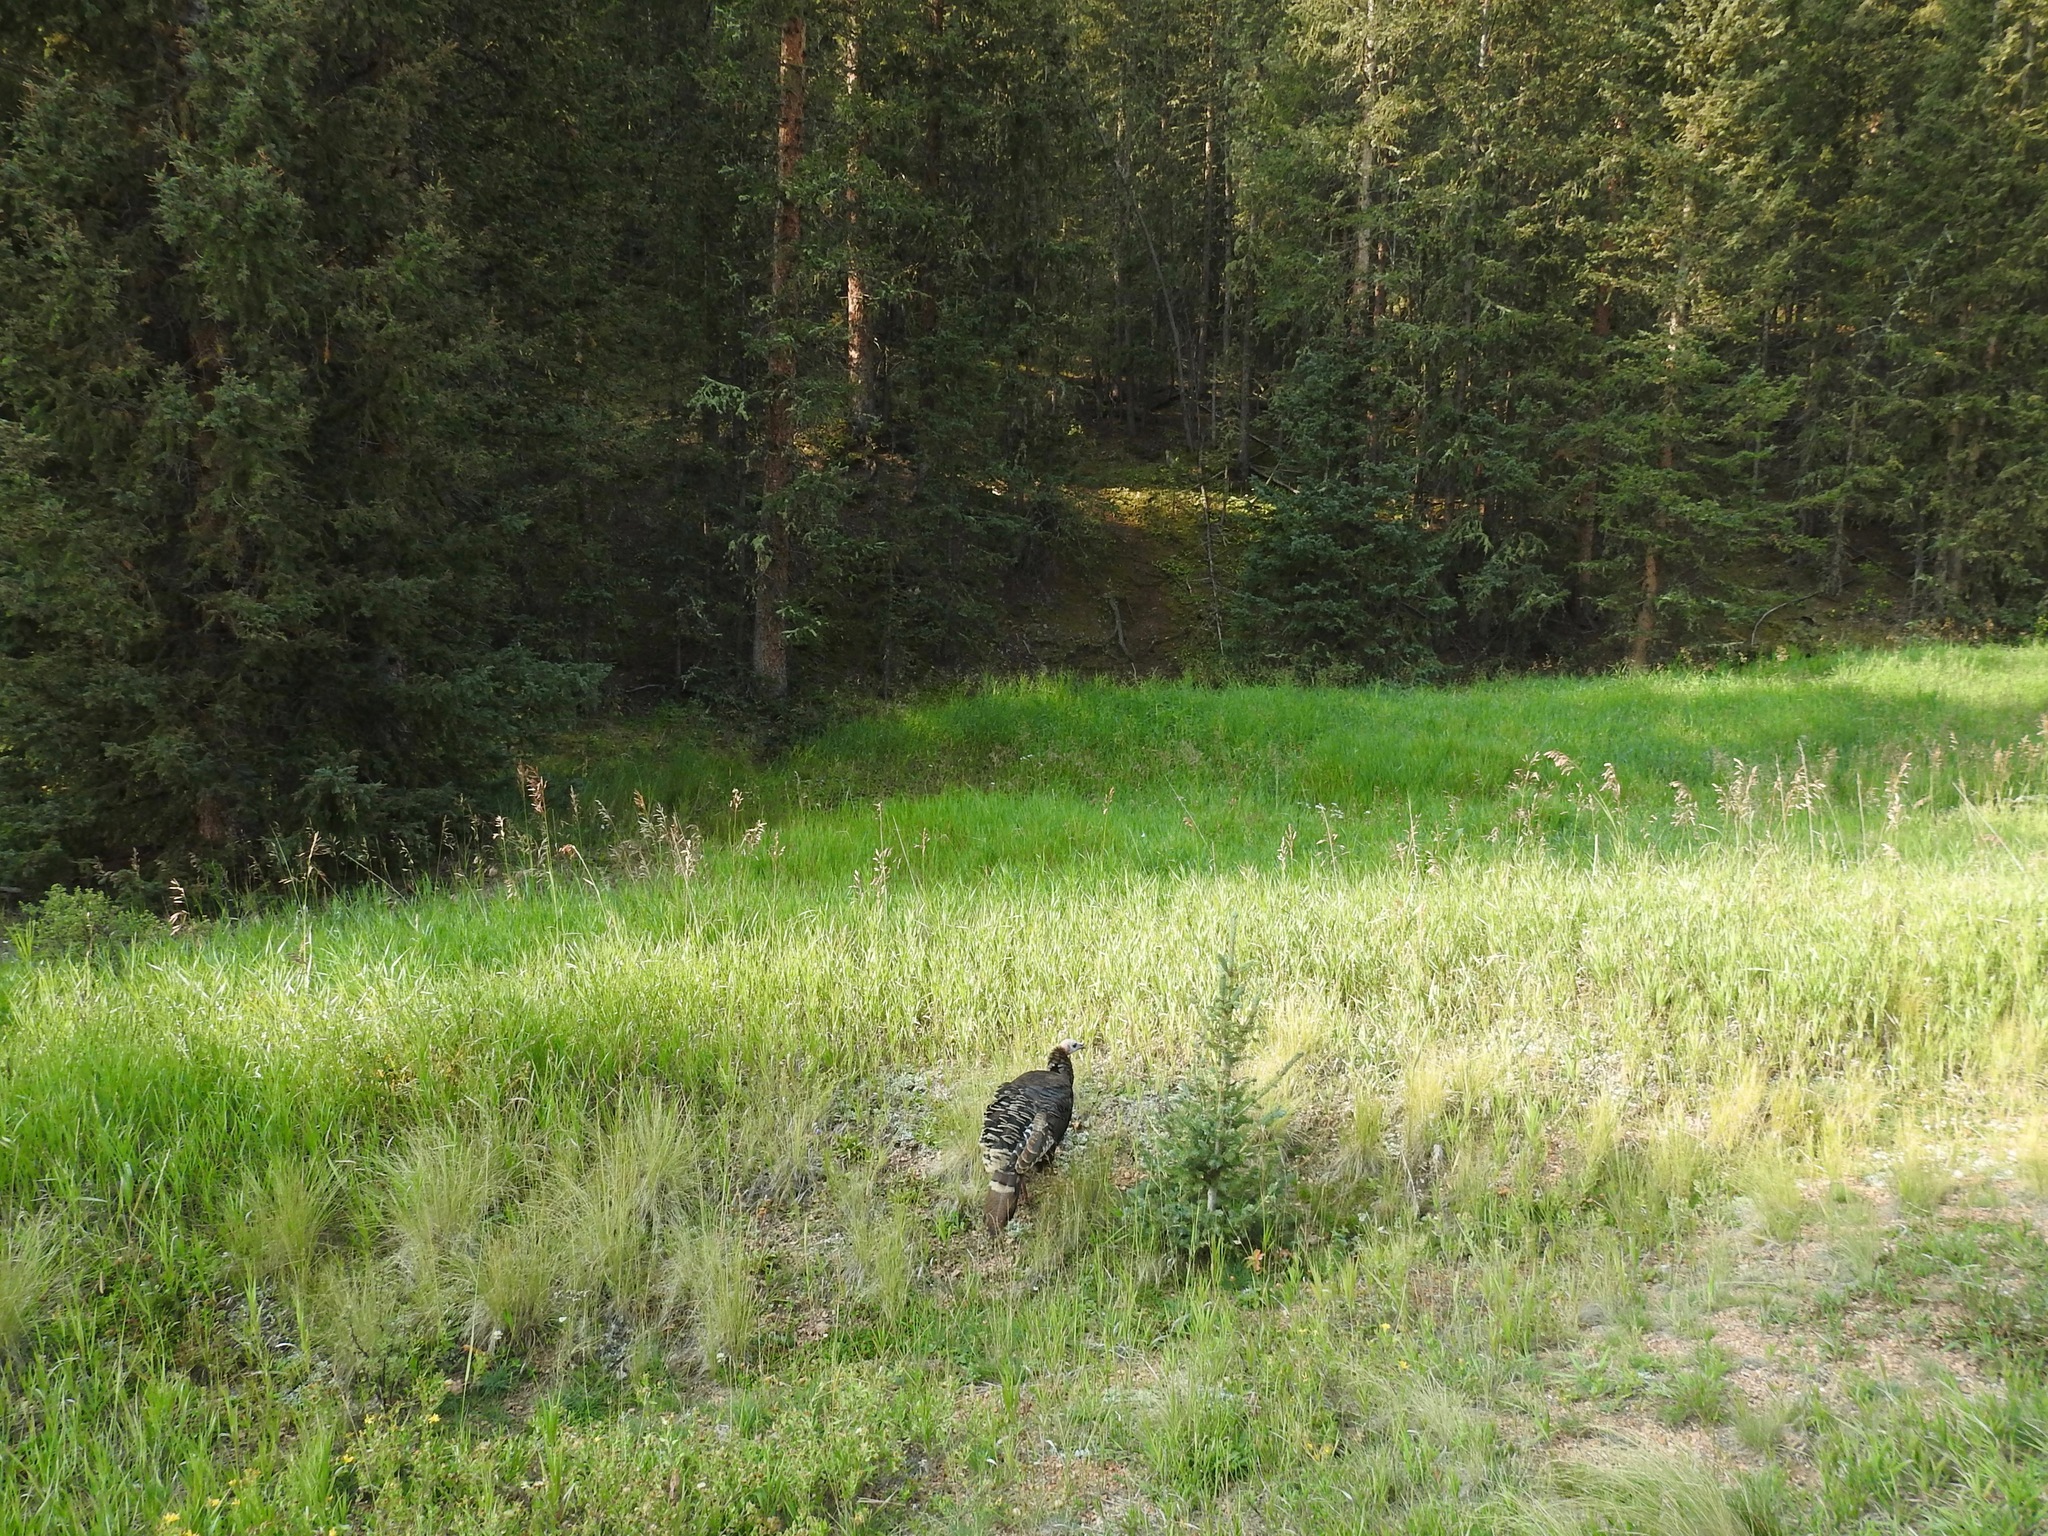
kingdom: Animalia
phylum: Chordata
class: Aves
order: Galliformes
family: Phasianidae
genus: Meleagris
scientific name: Meleagris gallopavo
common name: Wild turkey
